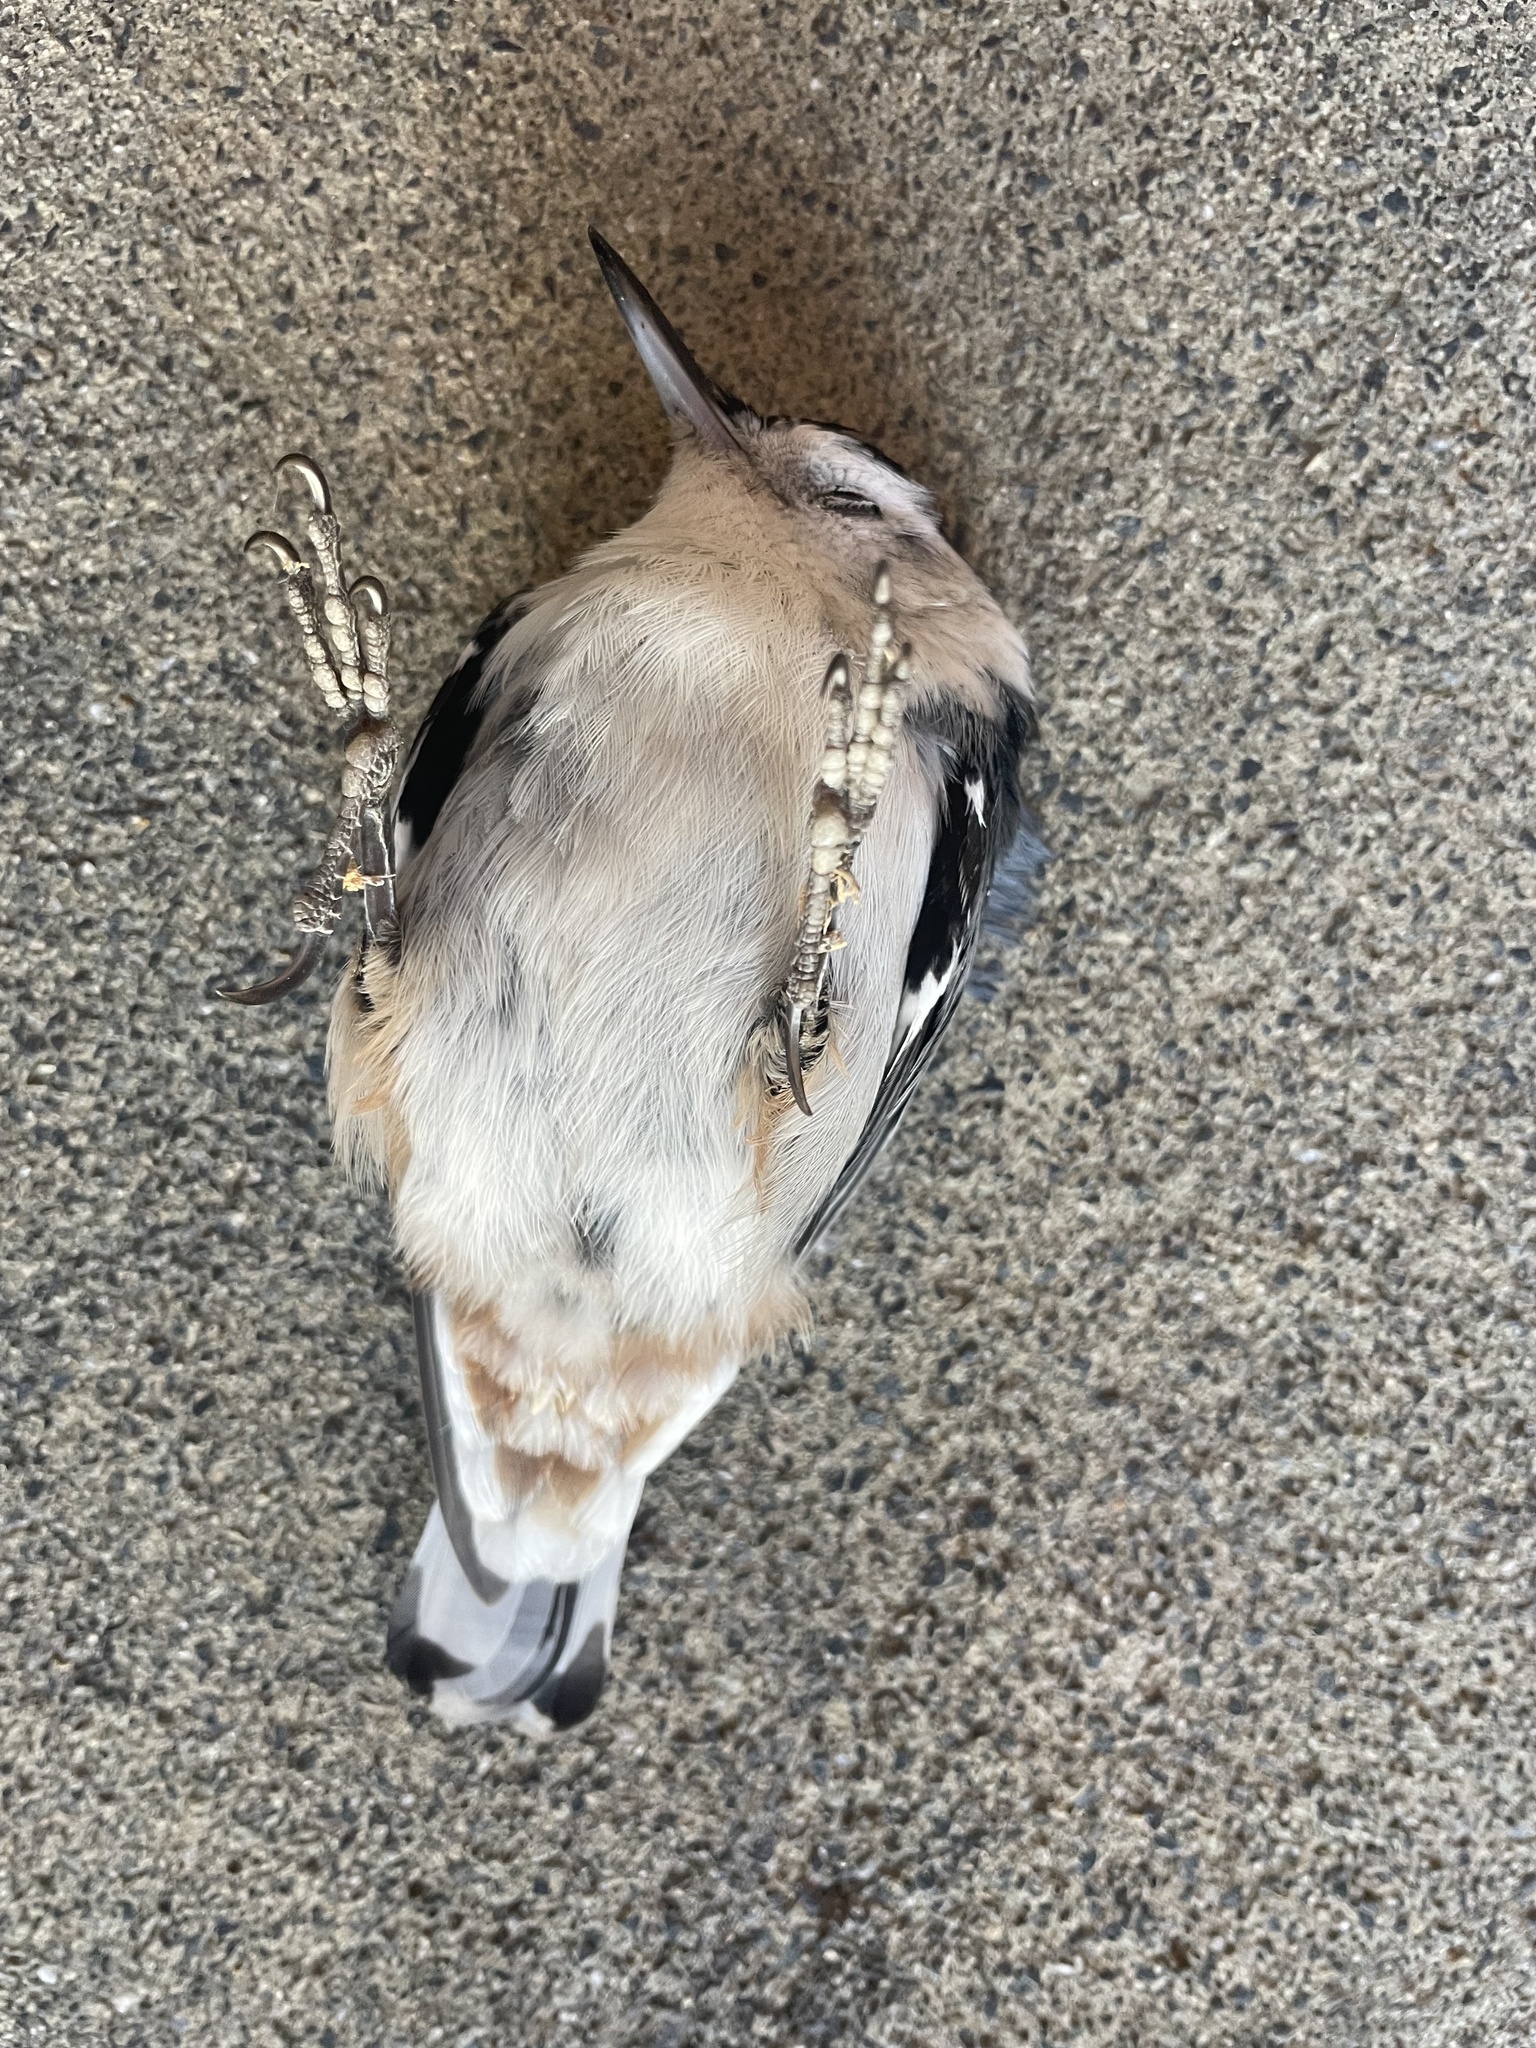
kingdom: Animalia
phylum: Chordata
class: Aves
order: Passeriformes
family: Sittidae
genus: Sitta
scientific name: Sitta carolinensis
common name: White-breasted nuthatch
